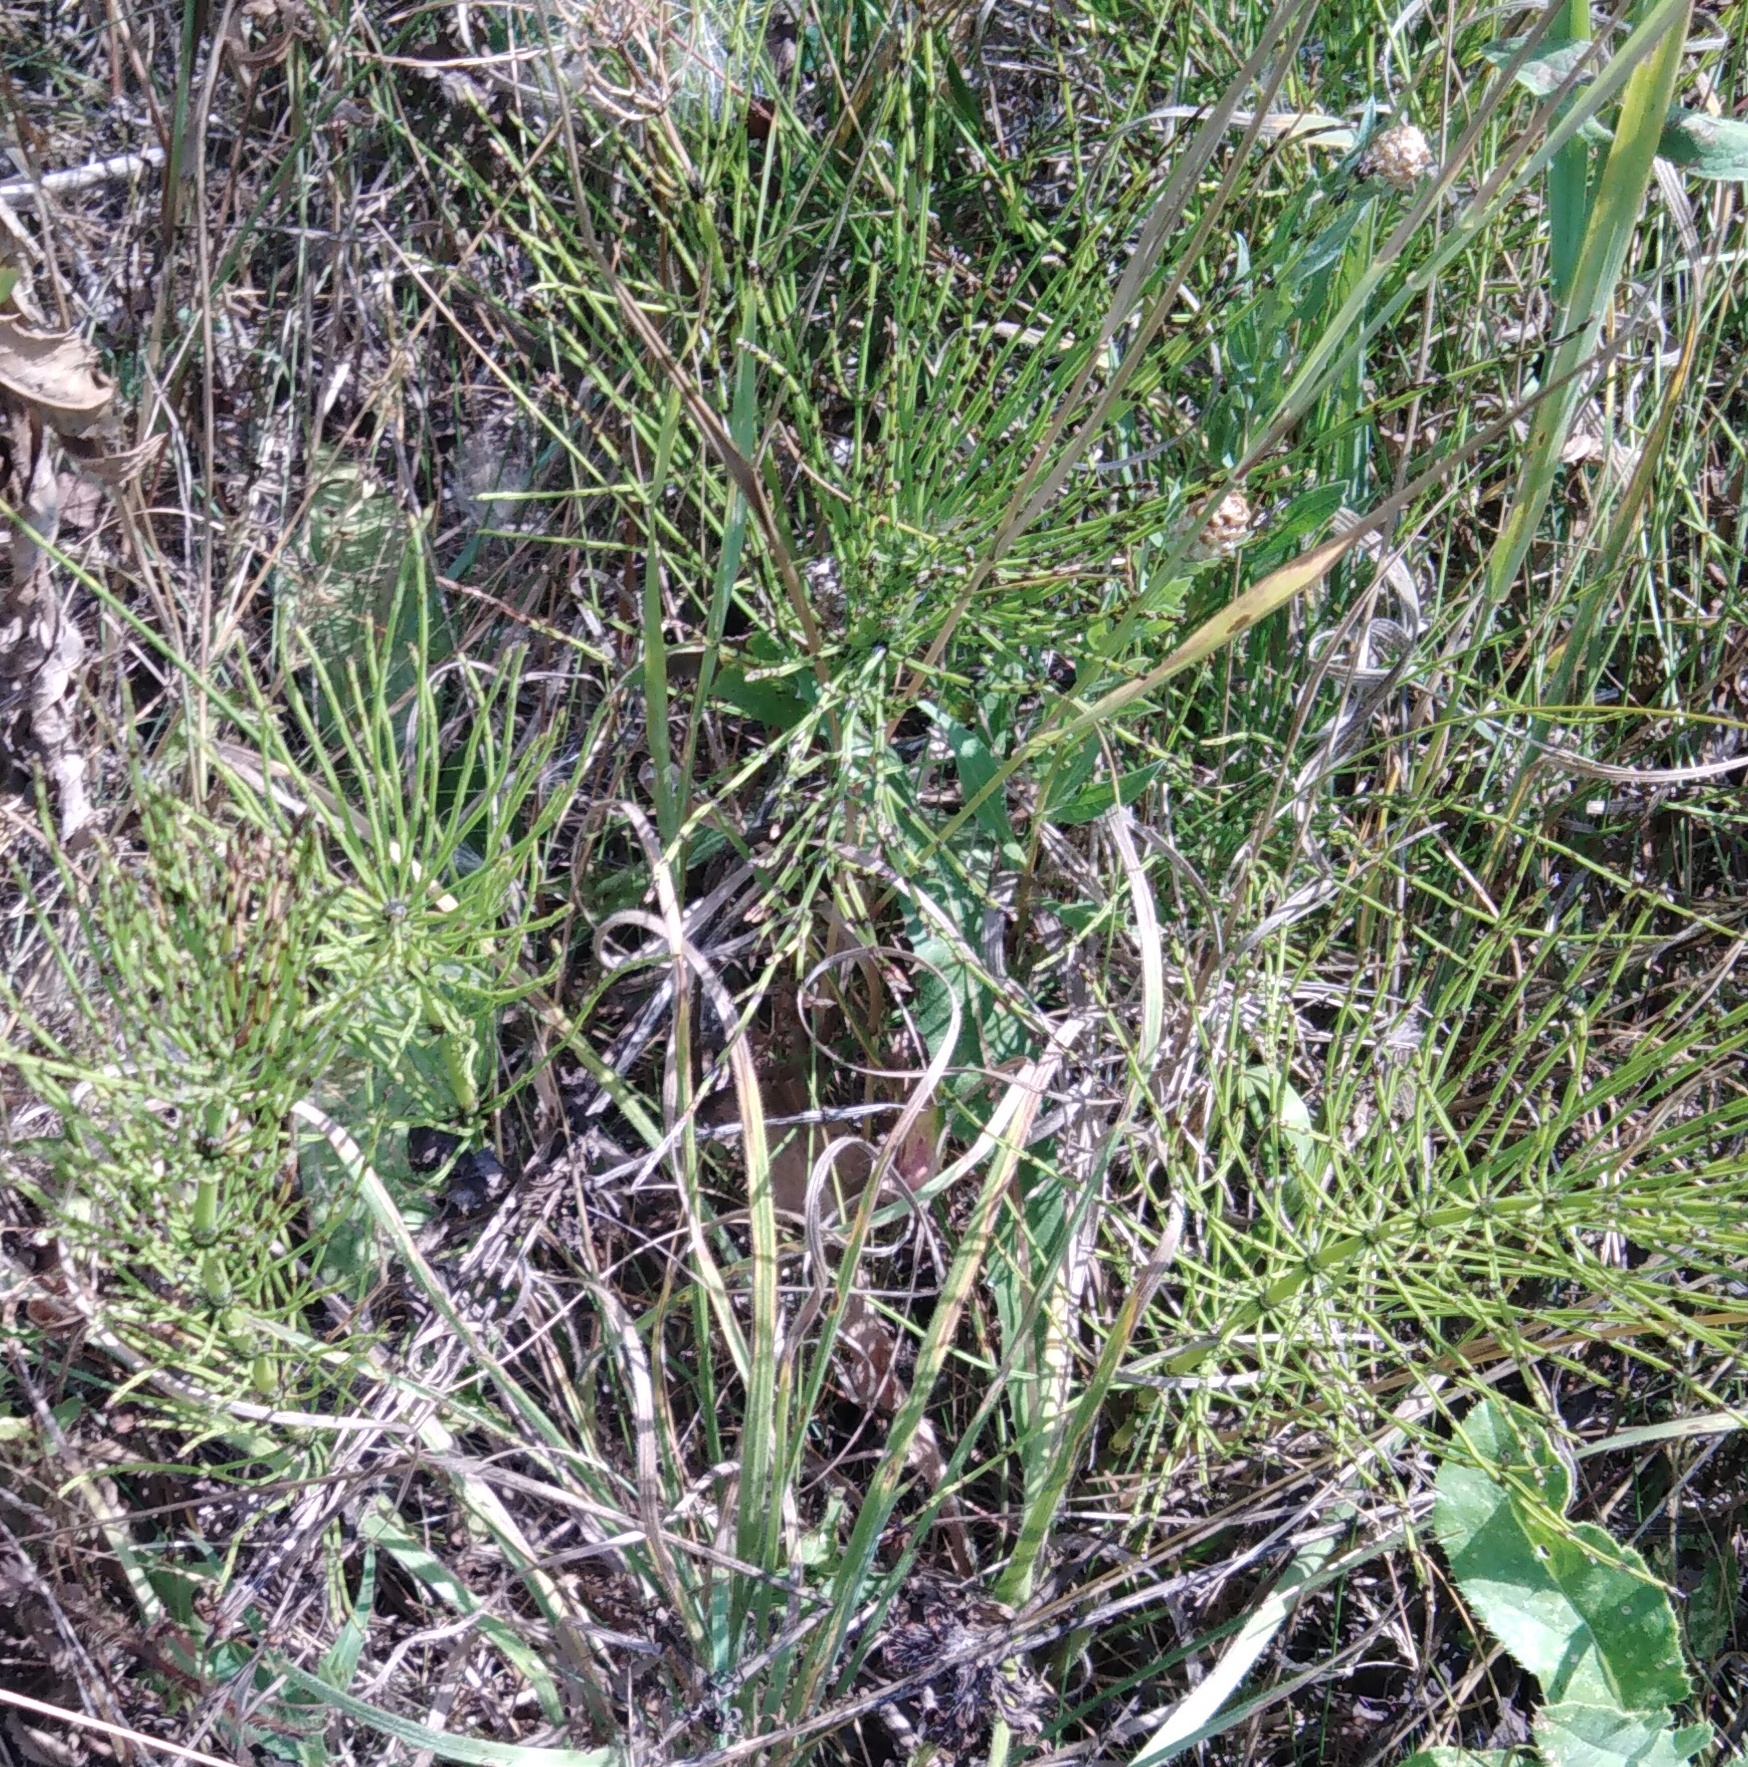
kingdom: Plantae
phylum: Tracheophyta
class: Polypodiopsida
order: Equisetales
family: Equisetaceae
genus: Equisetum
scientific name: Equisetum arvense
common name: Field horsetail
